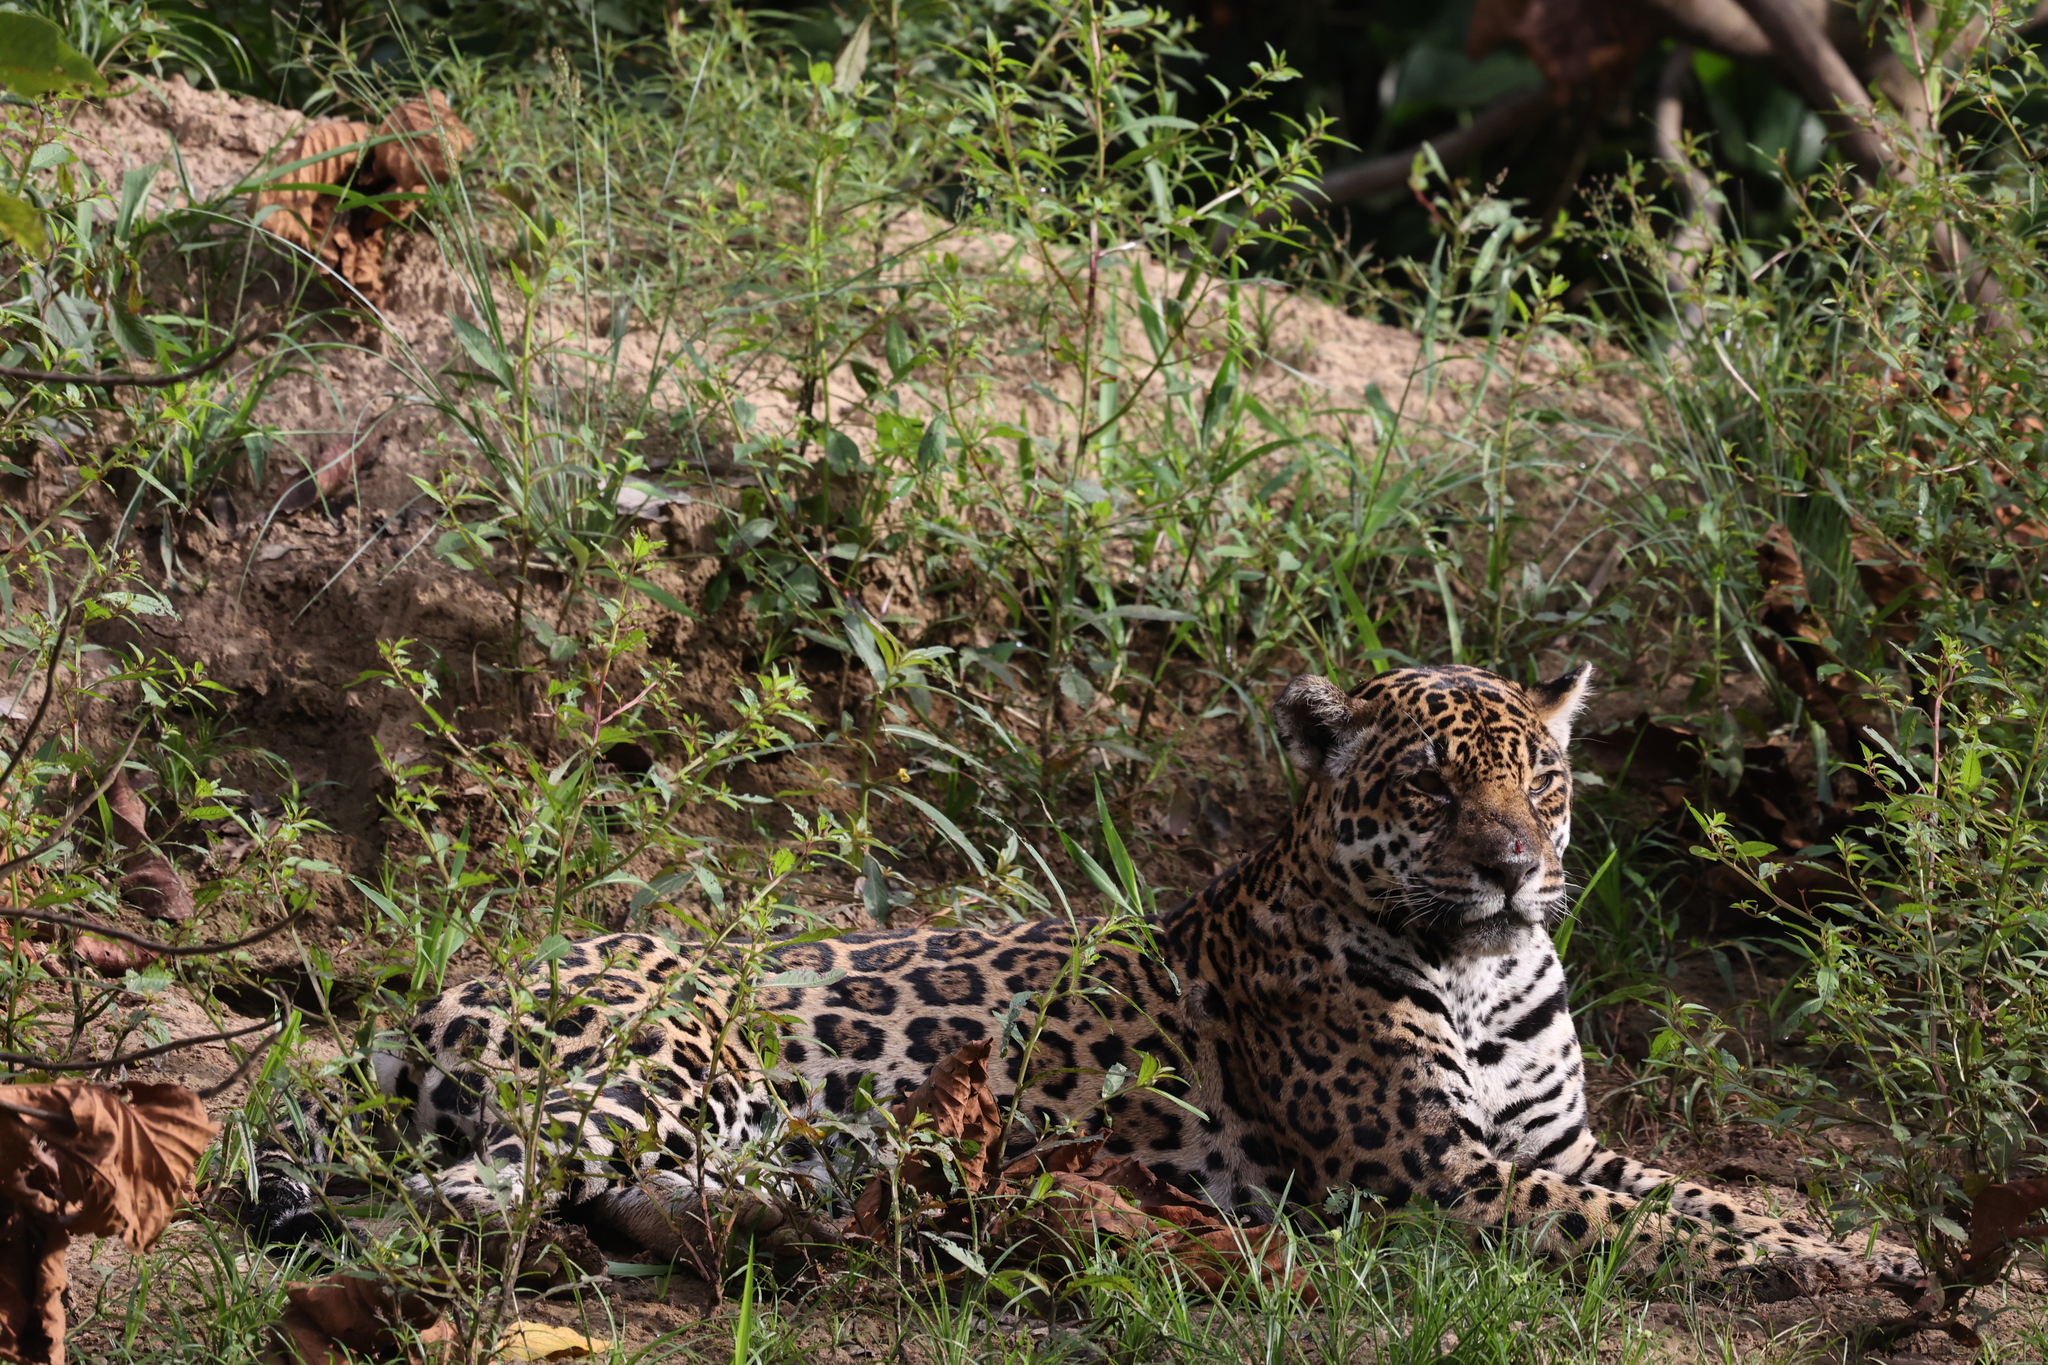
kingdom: Animalia
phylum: Chordata
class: Mammalia
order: Carnivora
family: Felidae
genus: Panthera
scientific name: Panthera onca
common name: Jaguar
